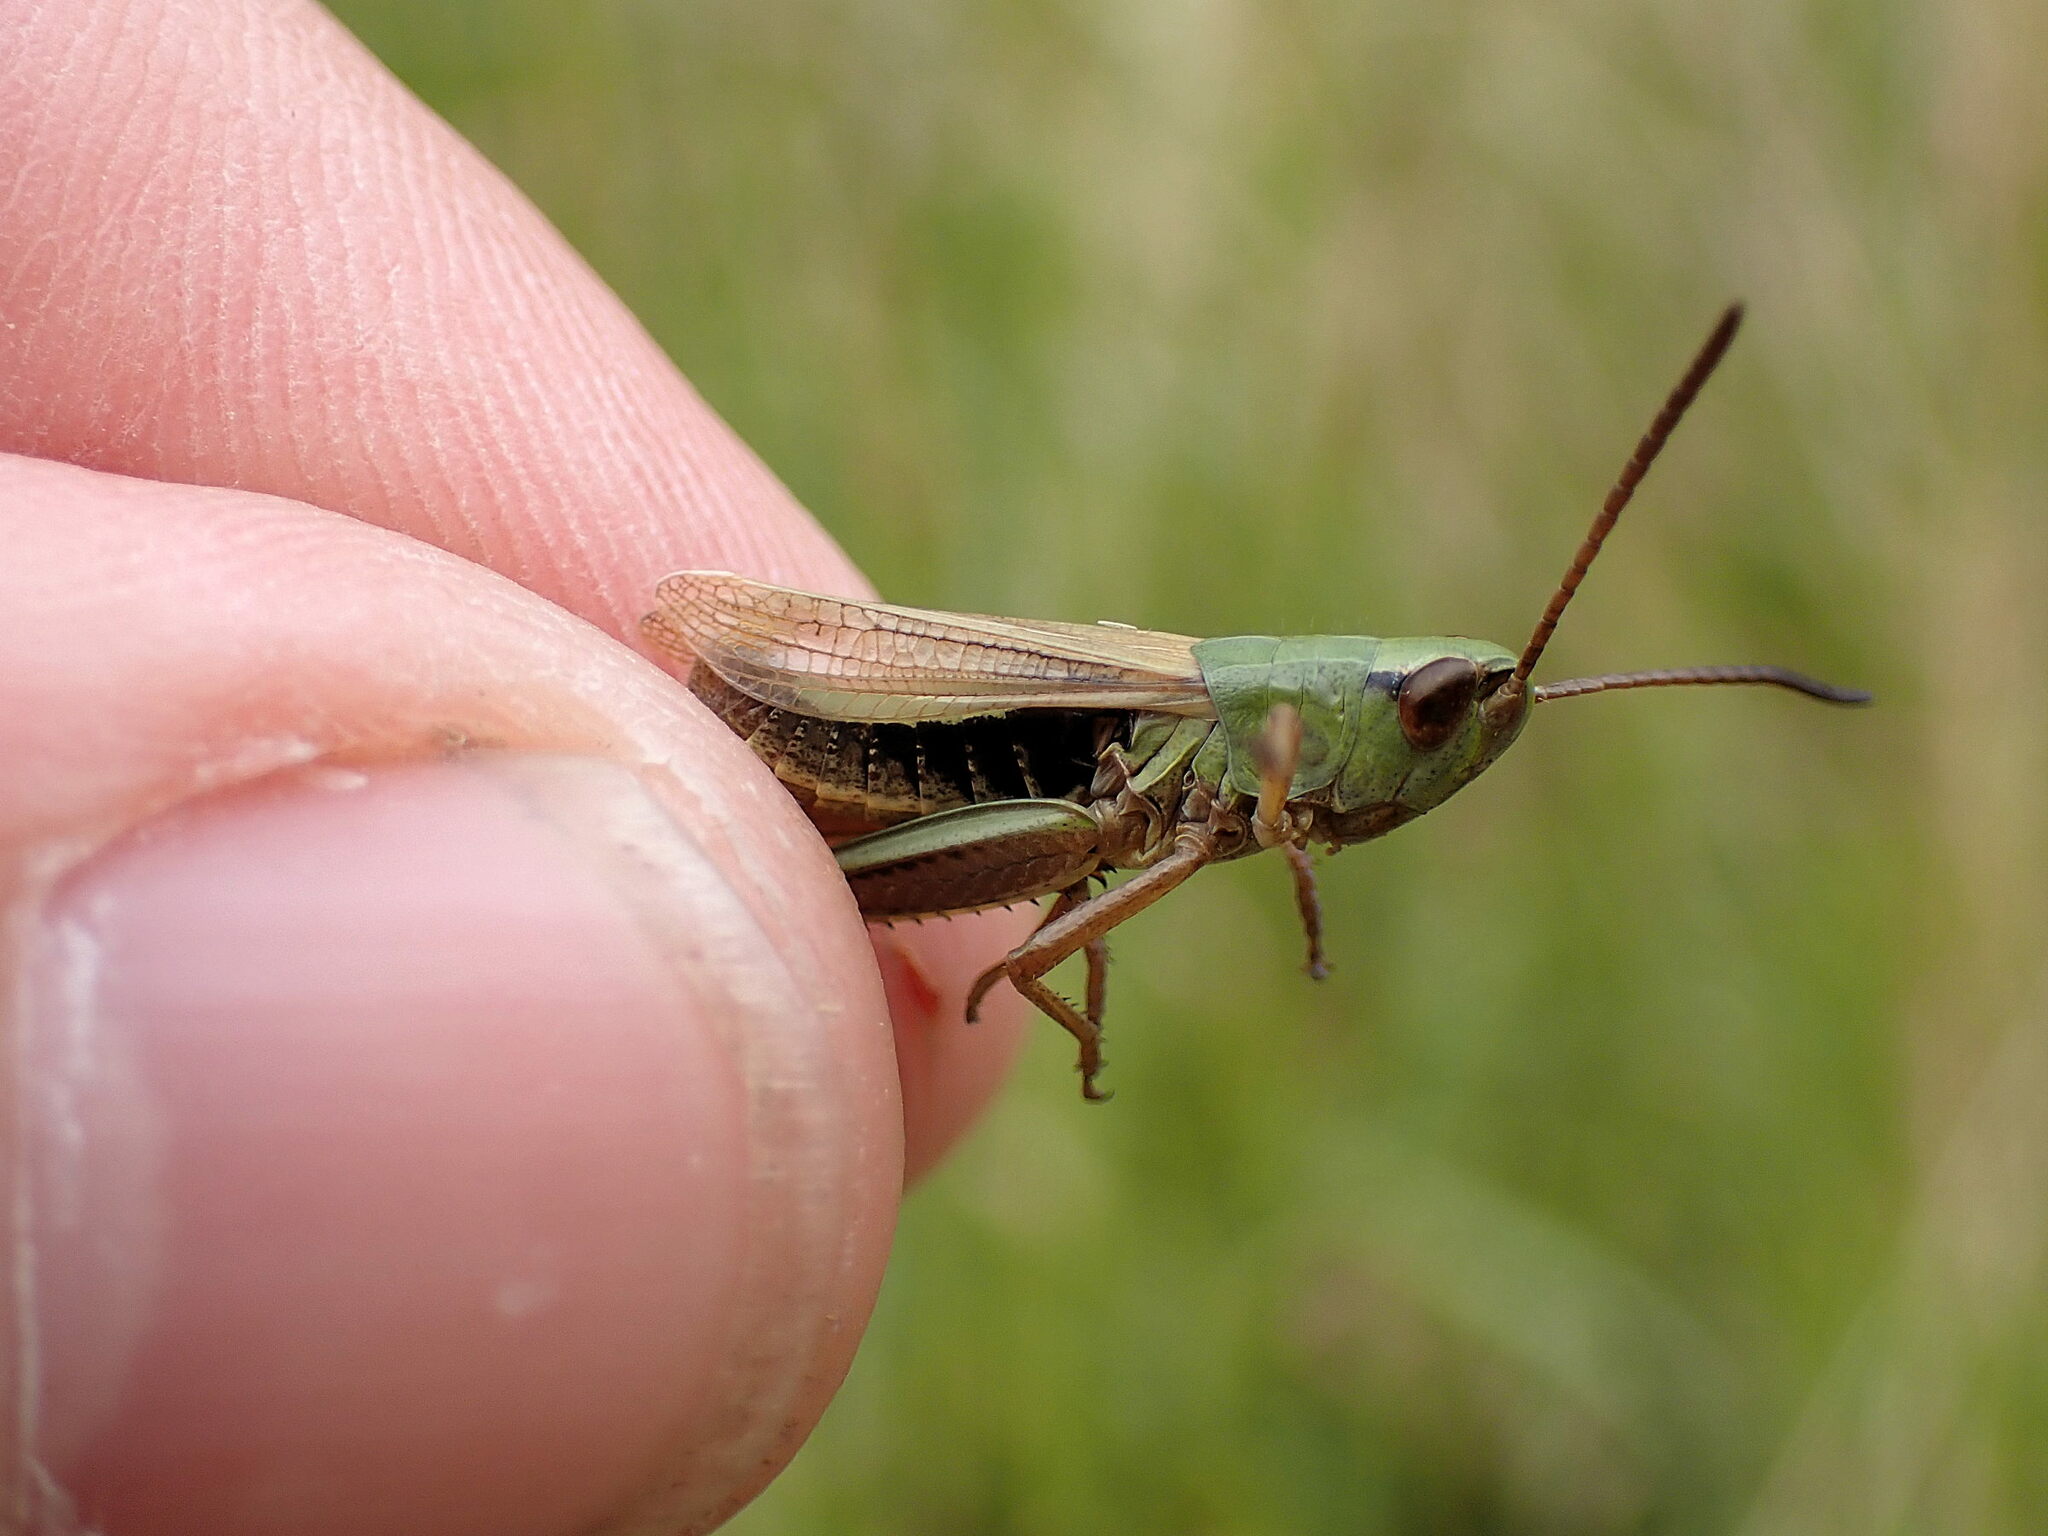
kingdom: Animalia
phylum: Arthropoda
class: Insecta
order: Orthoptera
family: Acrididae
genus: Pseudochorthippus
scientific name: Pseudochorthippus parallelus
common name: Meadow grasshopper
